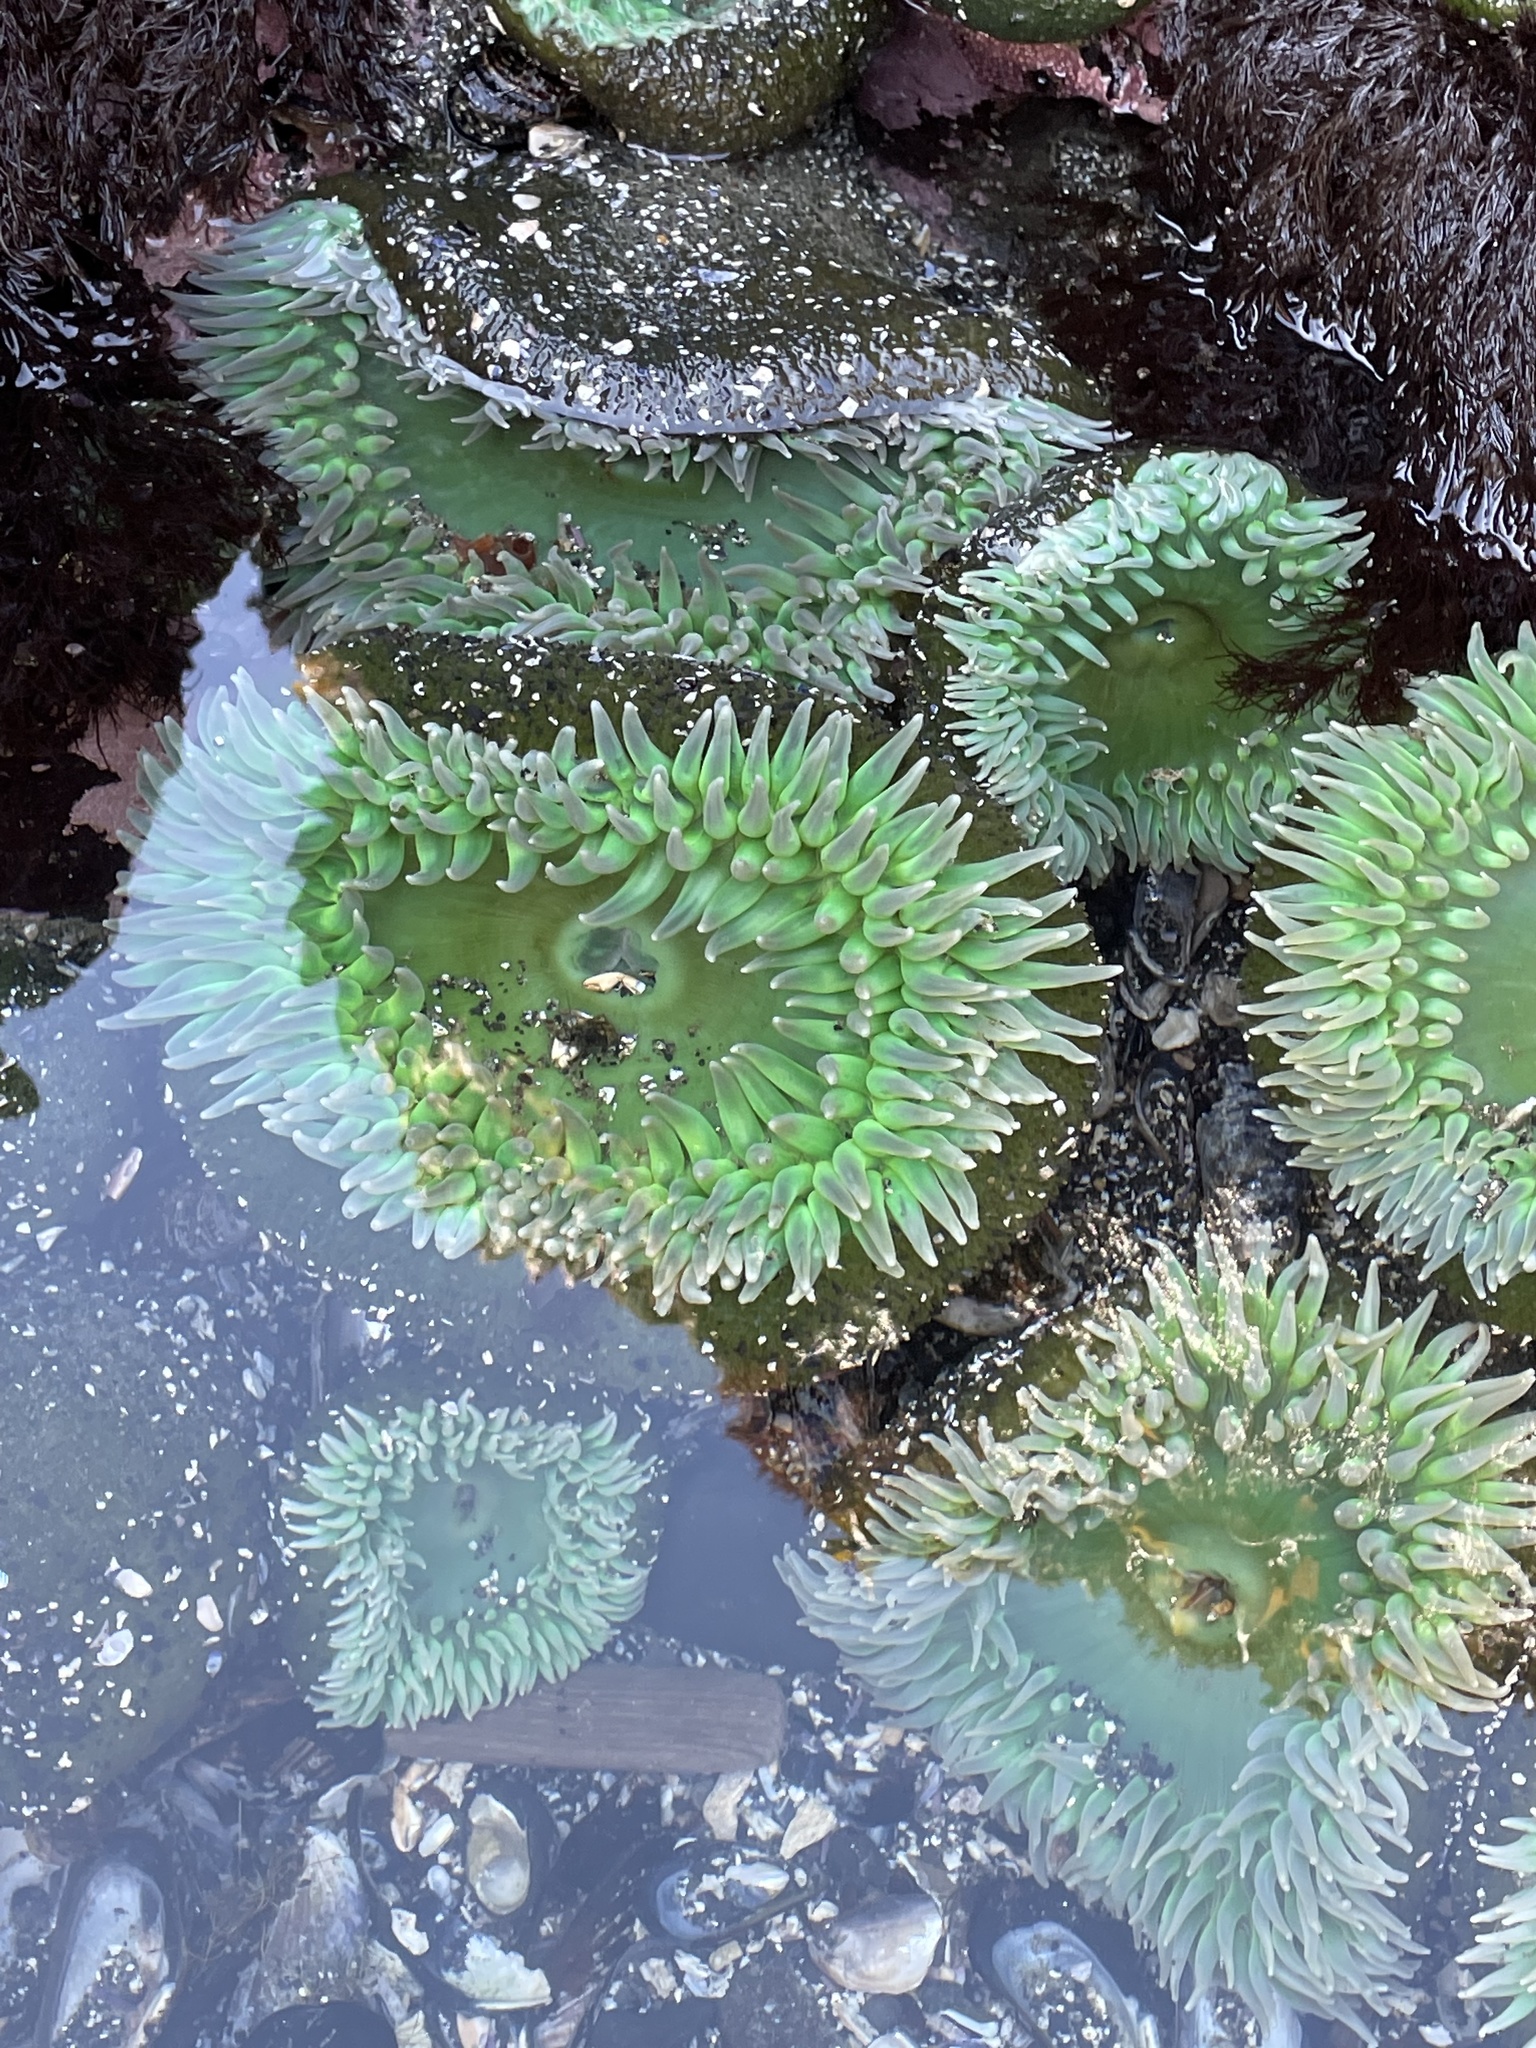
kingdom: Animalia
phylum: Cnidaria
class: Anthozoa
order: Actiniaria
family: Actiniidae
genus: Anthopleura
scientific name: Anthopleura xanthogrammica
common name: Giant green anemone
